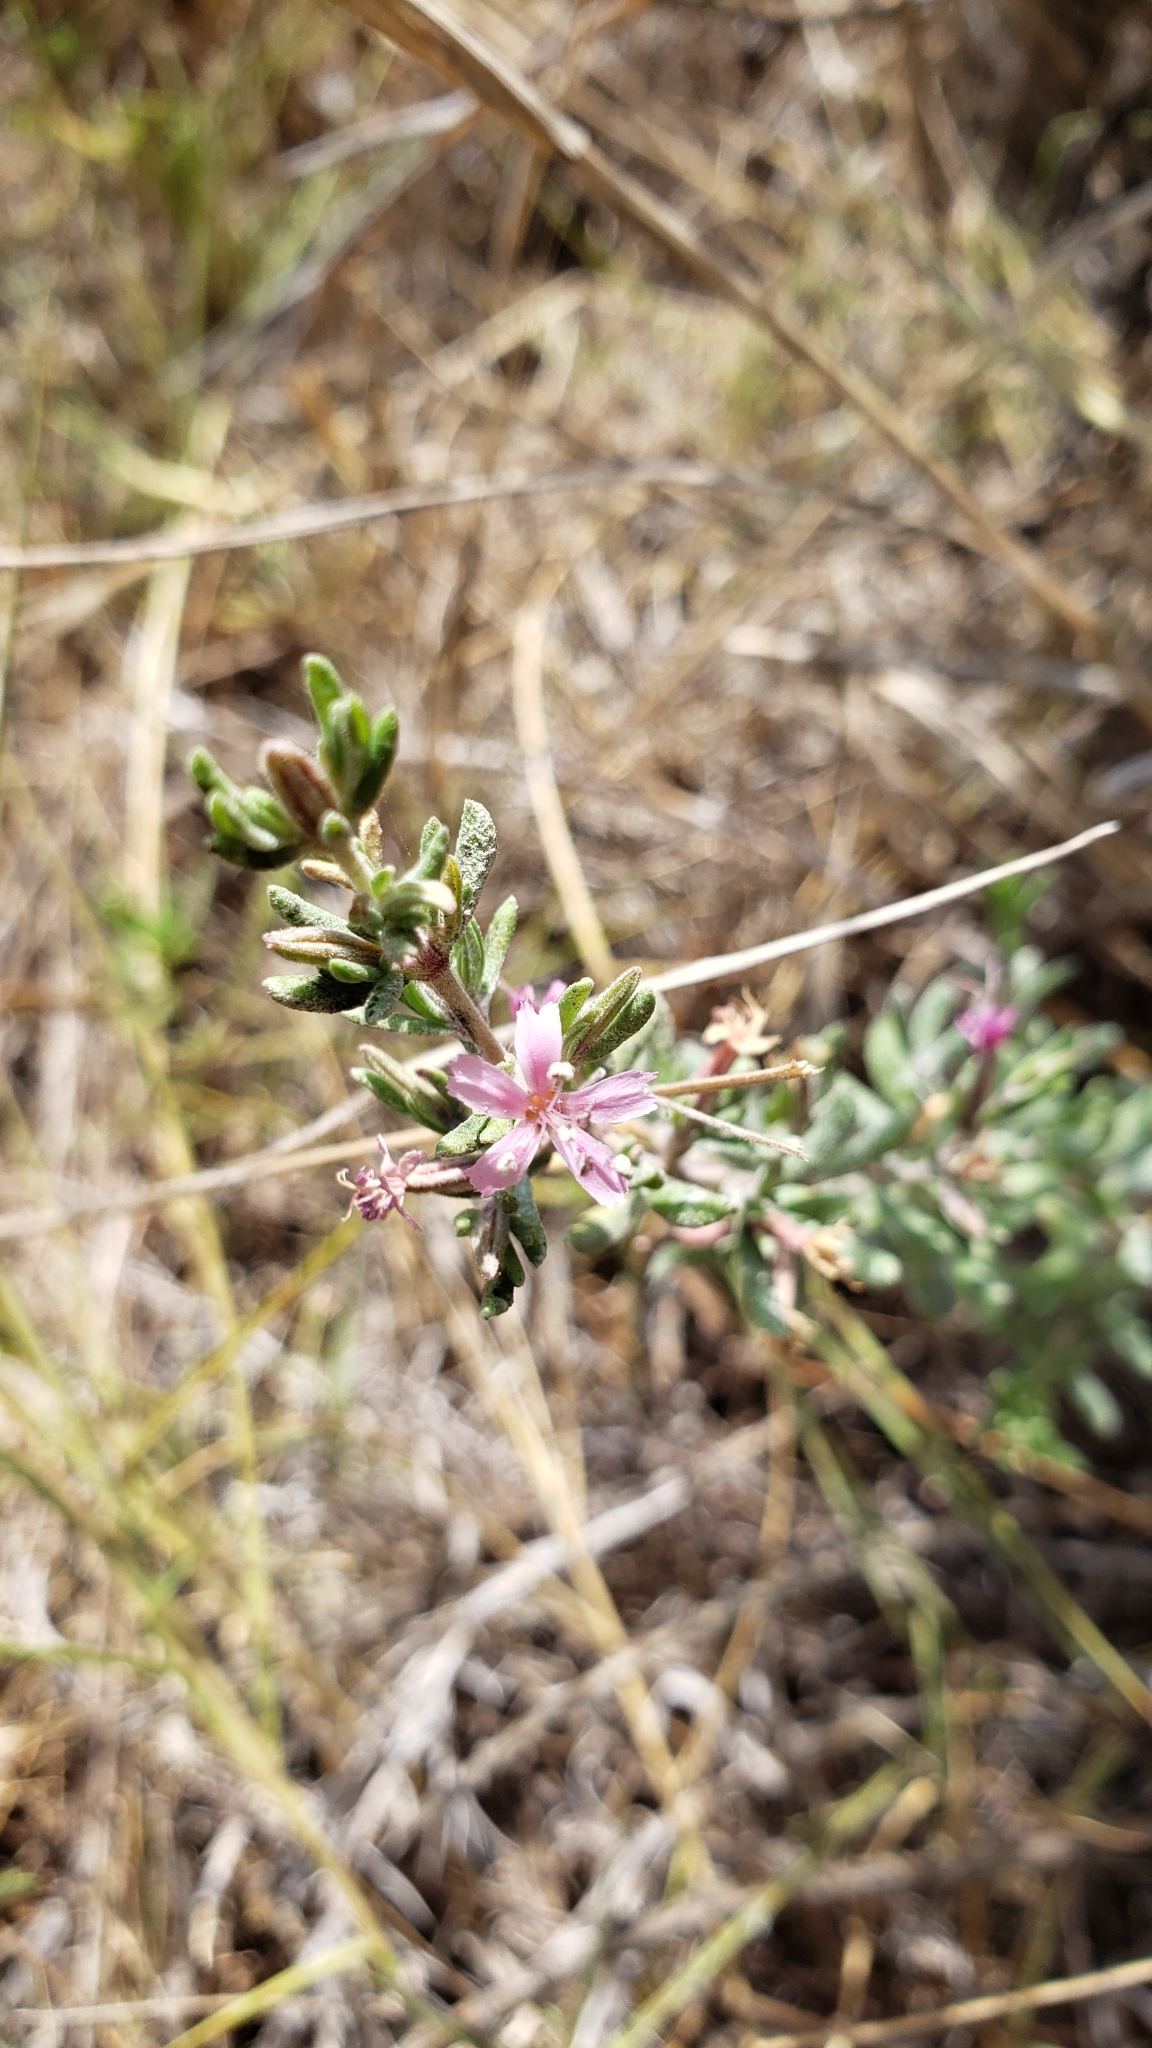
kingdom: Plantae
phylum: Tracheophyta
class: Magnoliopsida
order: Caryophyllales
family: Frankeniaceae
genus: Frankenia
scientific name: Frankenia salina
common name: Alkali seaheath
